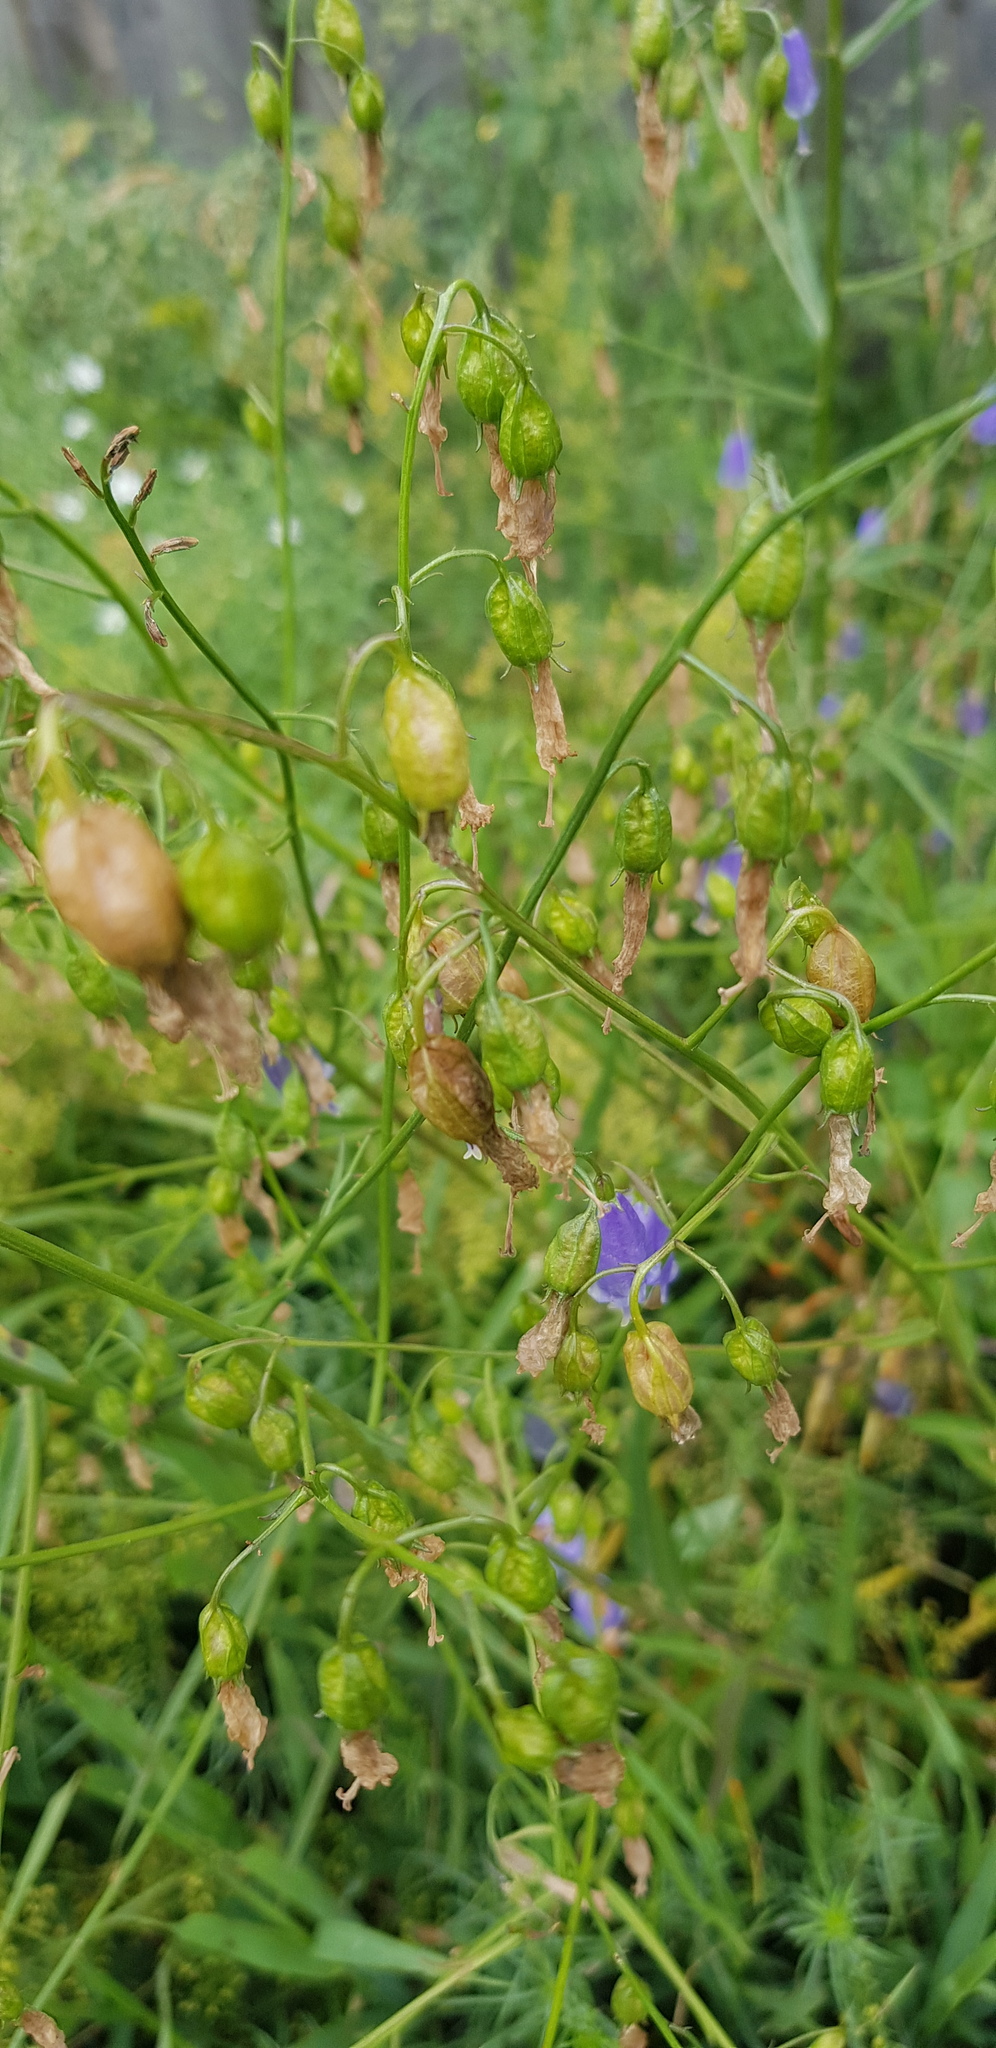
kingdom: Plantae
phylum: Tracheophyta
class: Magnoliopsida
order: Asterales
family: Campanulaceae
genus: Adenophora
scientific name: Adenophora stenanthina
